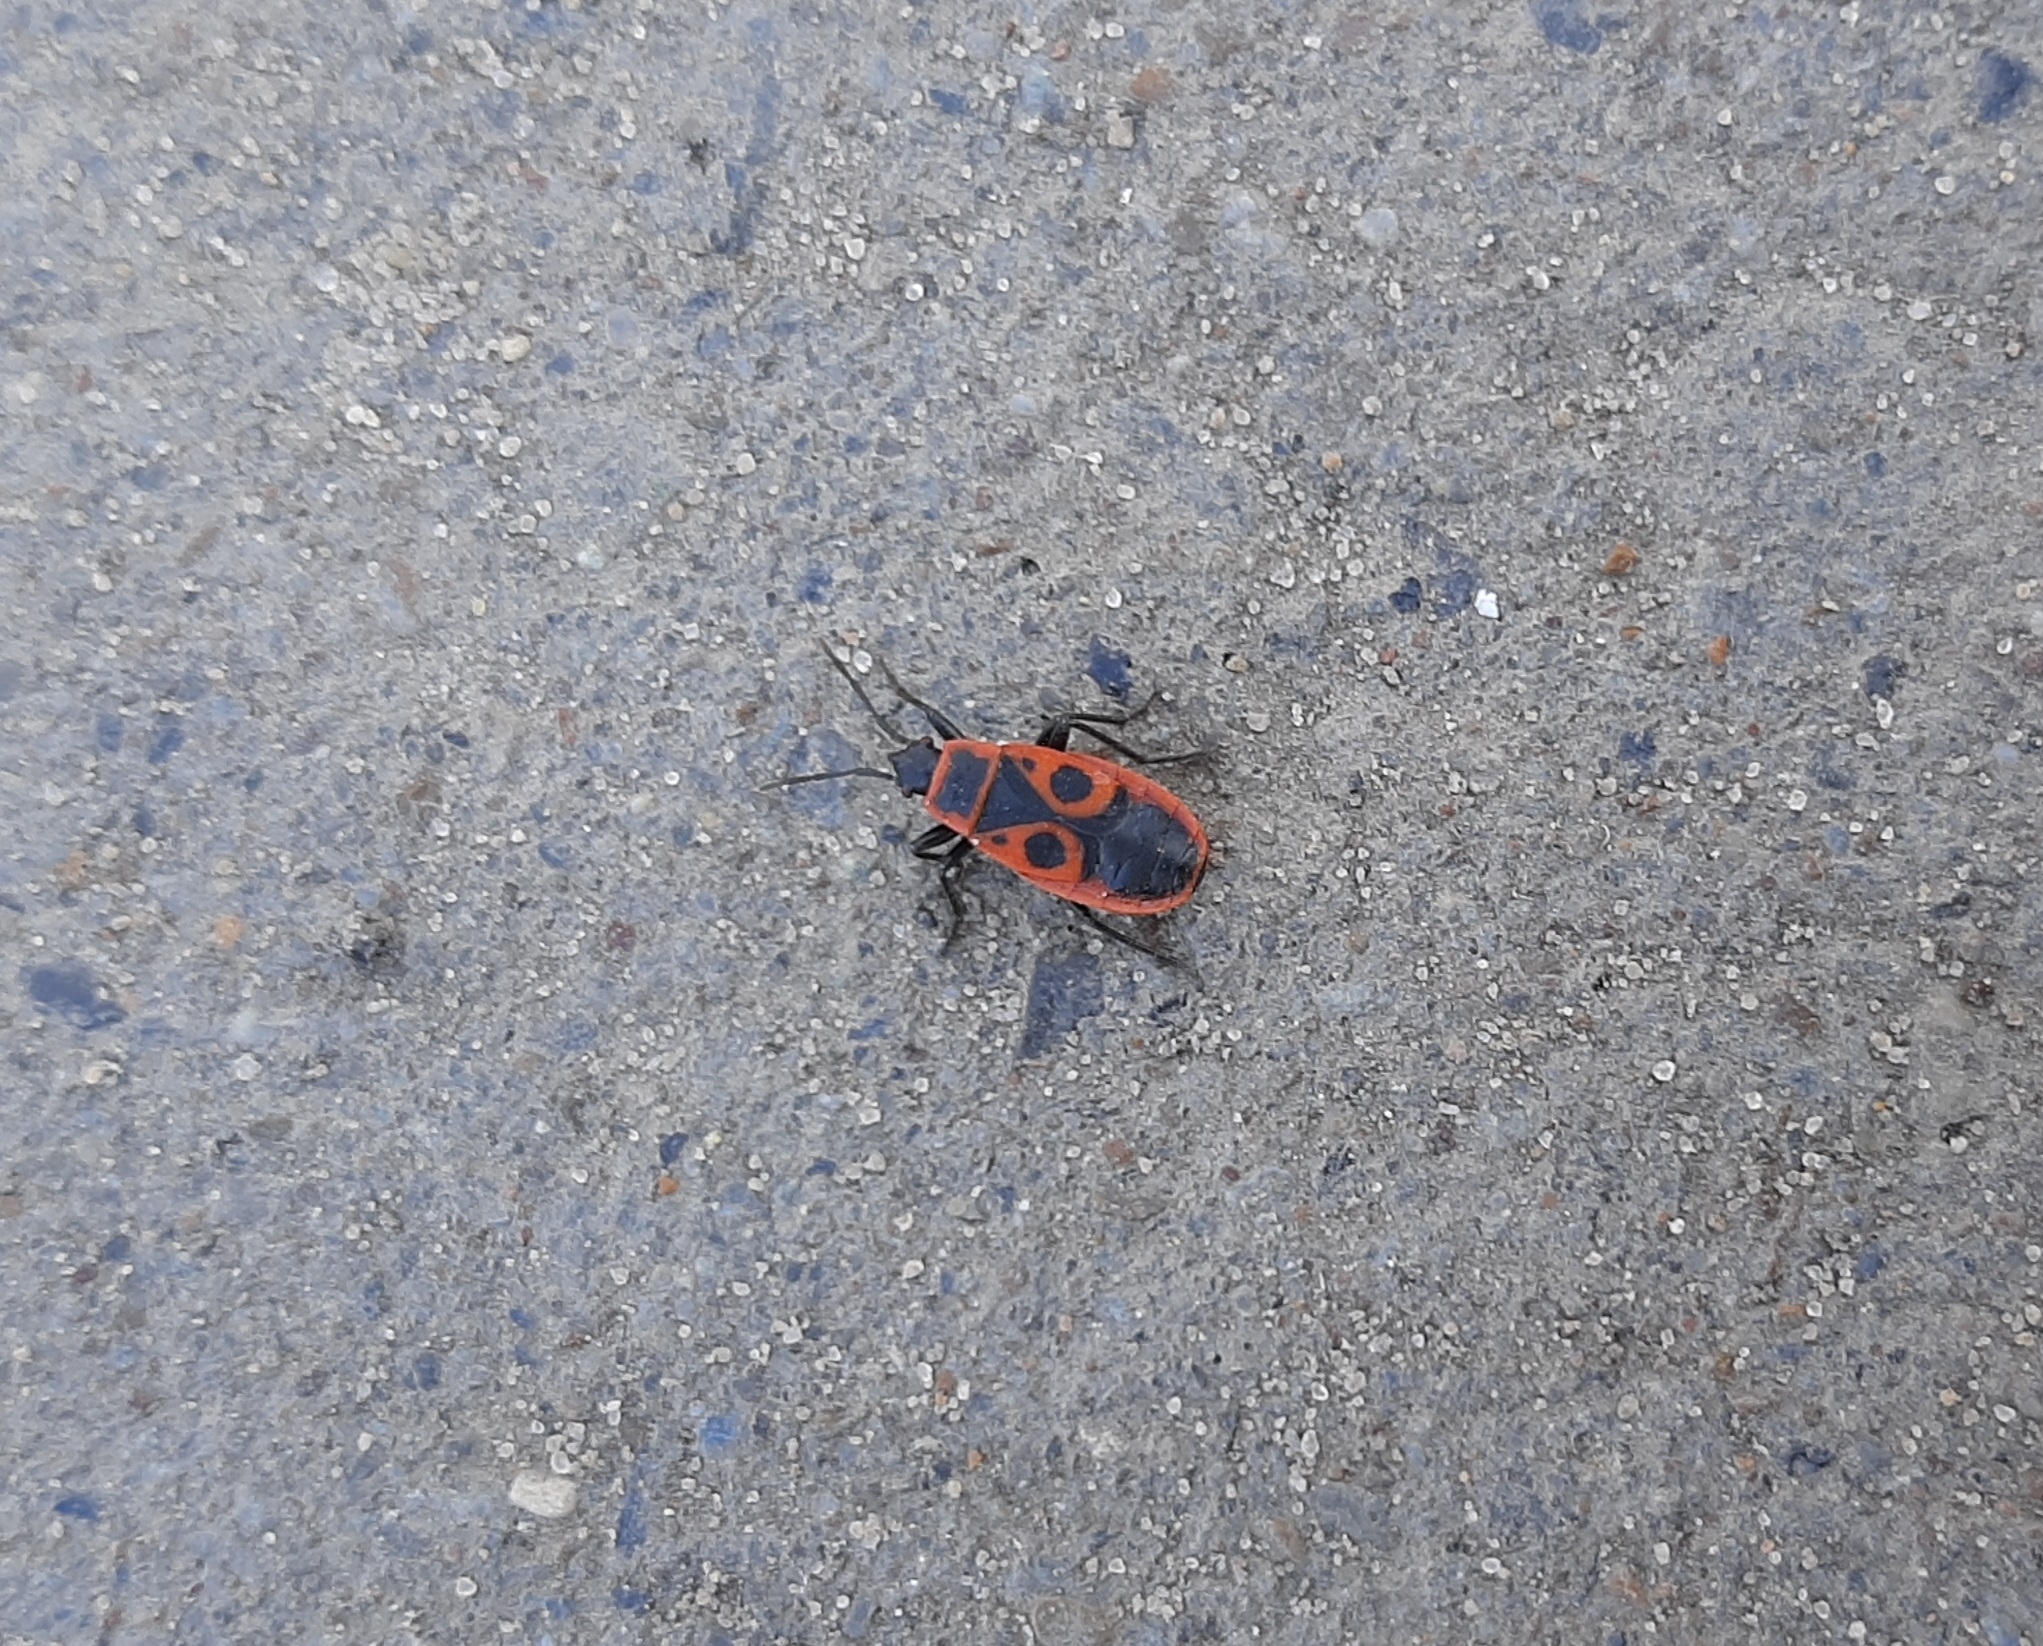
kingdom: Animalia
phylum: Arthropoda
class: Insecta
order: Hemiptera
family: Pyrrhocoridae
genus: Pyrrhocoris
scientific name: Pyrrhocoris apterus
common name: Firebug
